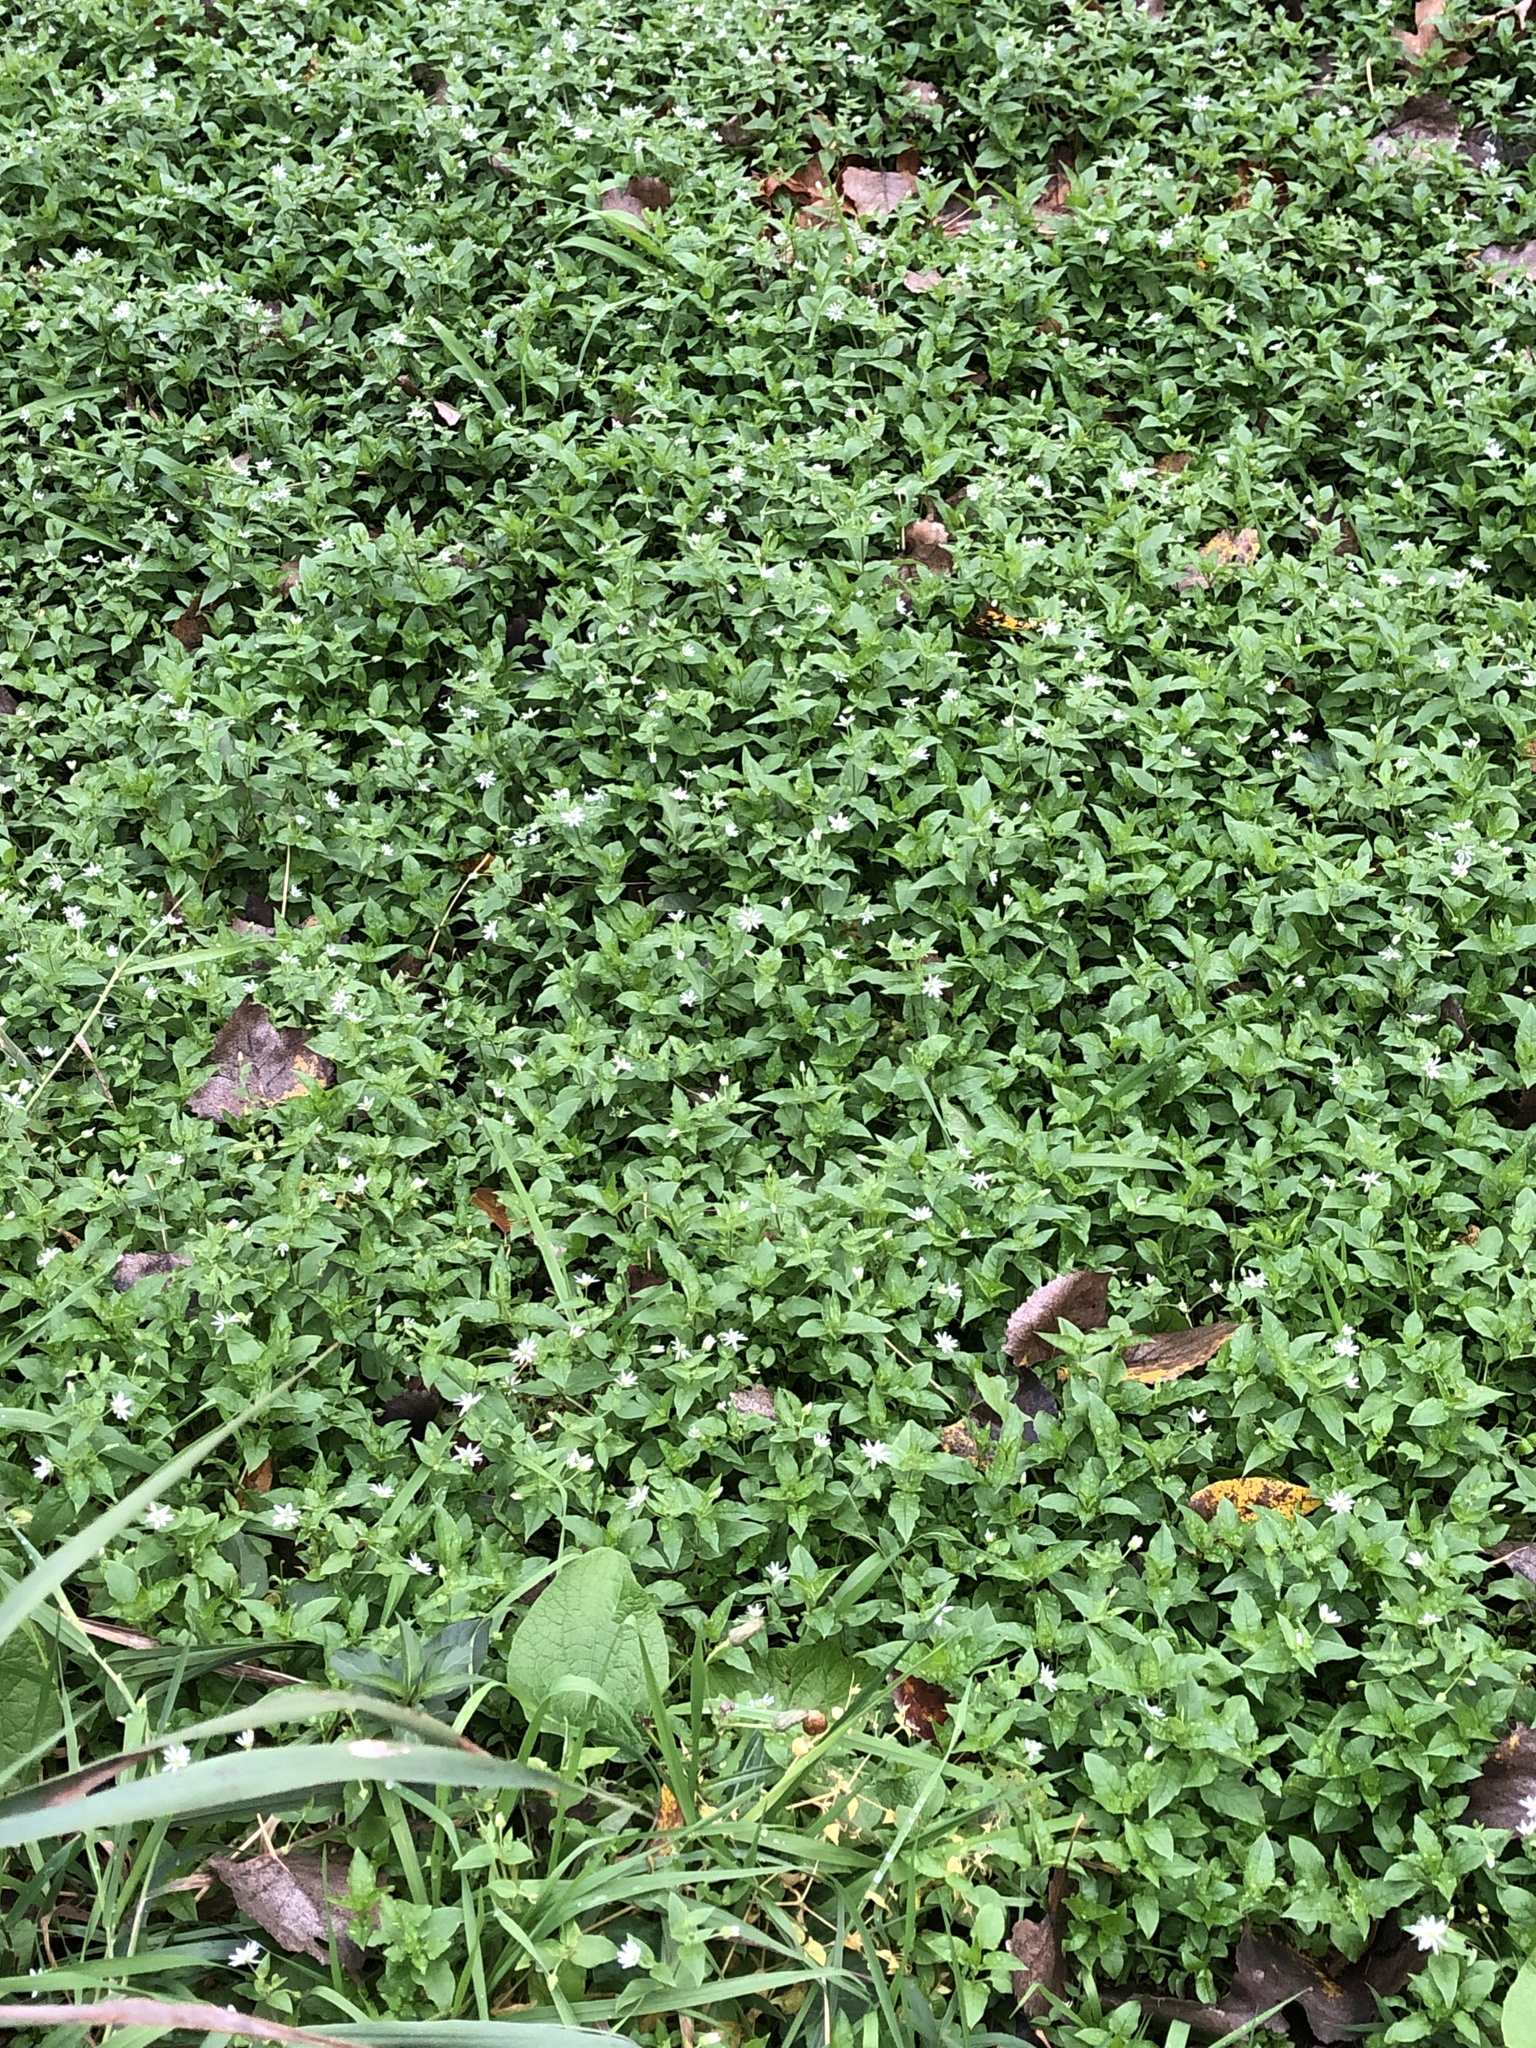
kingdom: Plantae
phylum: Tracheophyta
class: Magnoliopsida
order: Caryophyllales
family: Caryophyllaceae
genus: Stellaria
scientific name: Stellaria aquatica
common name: Water chickweed
